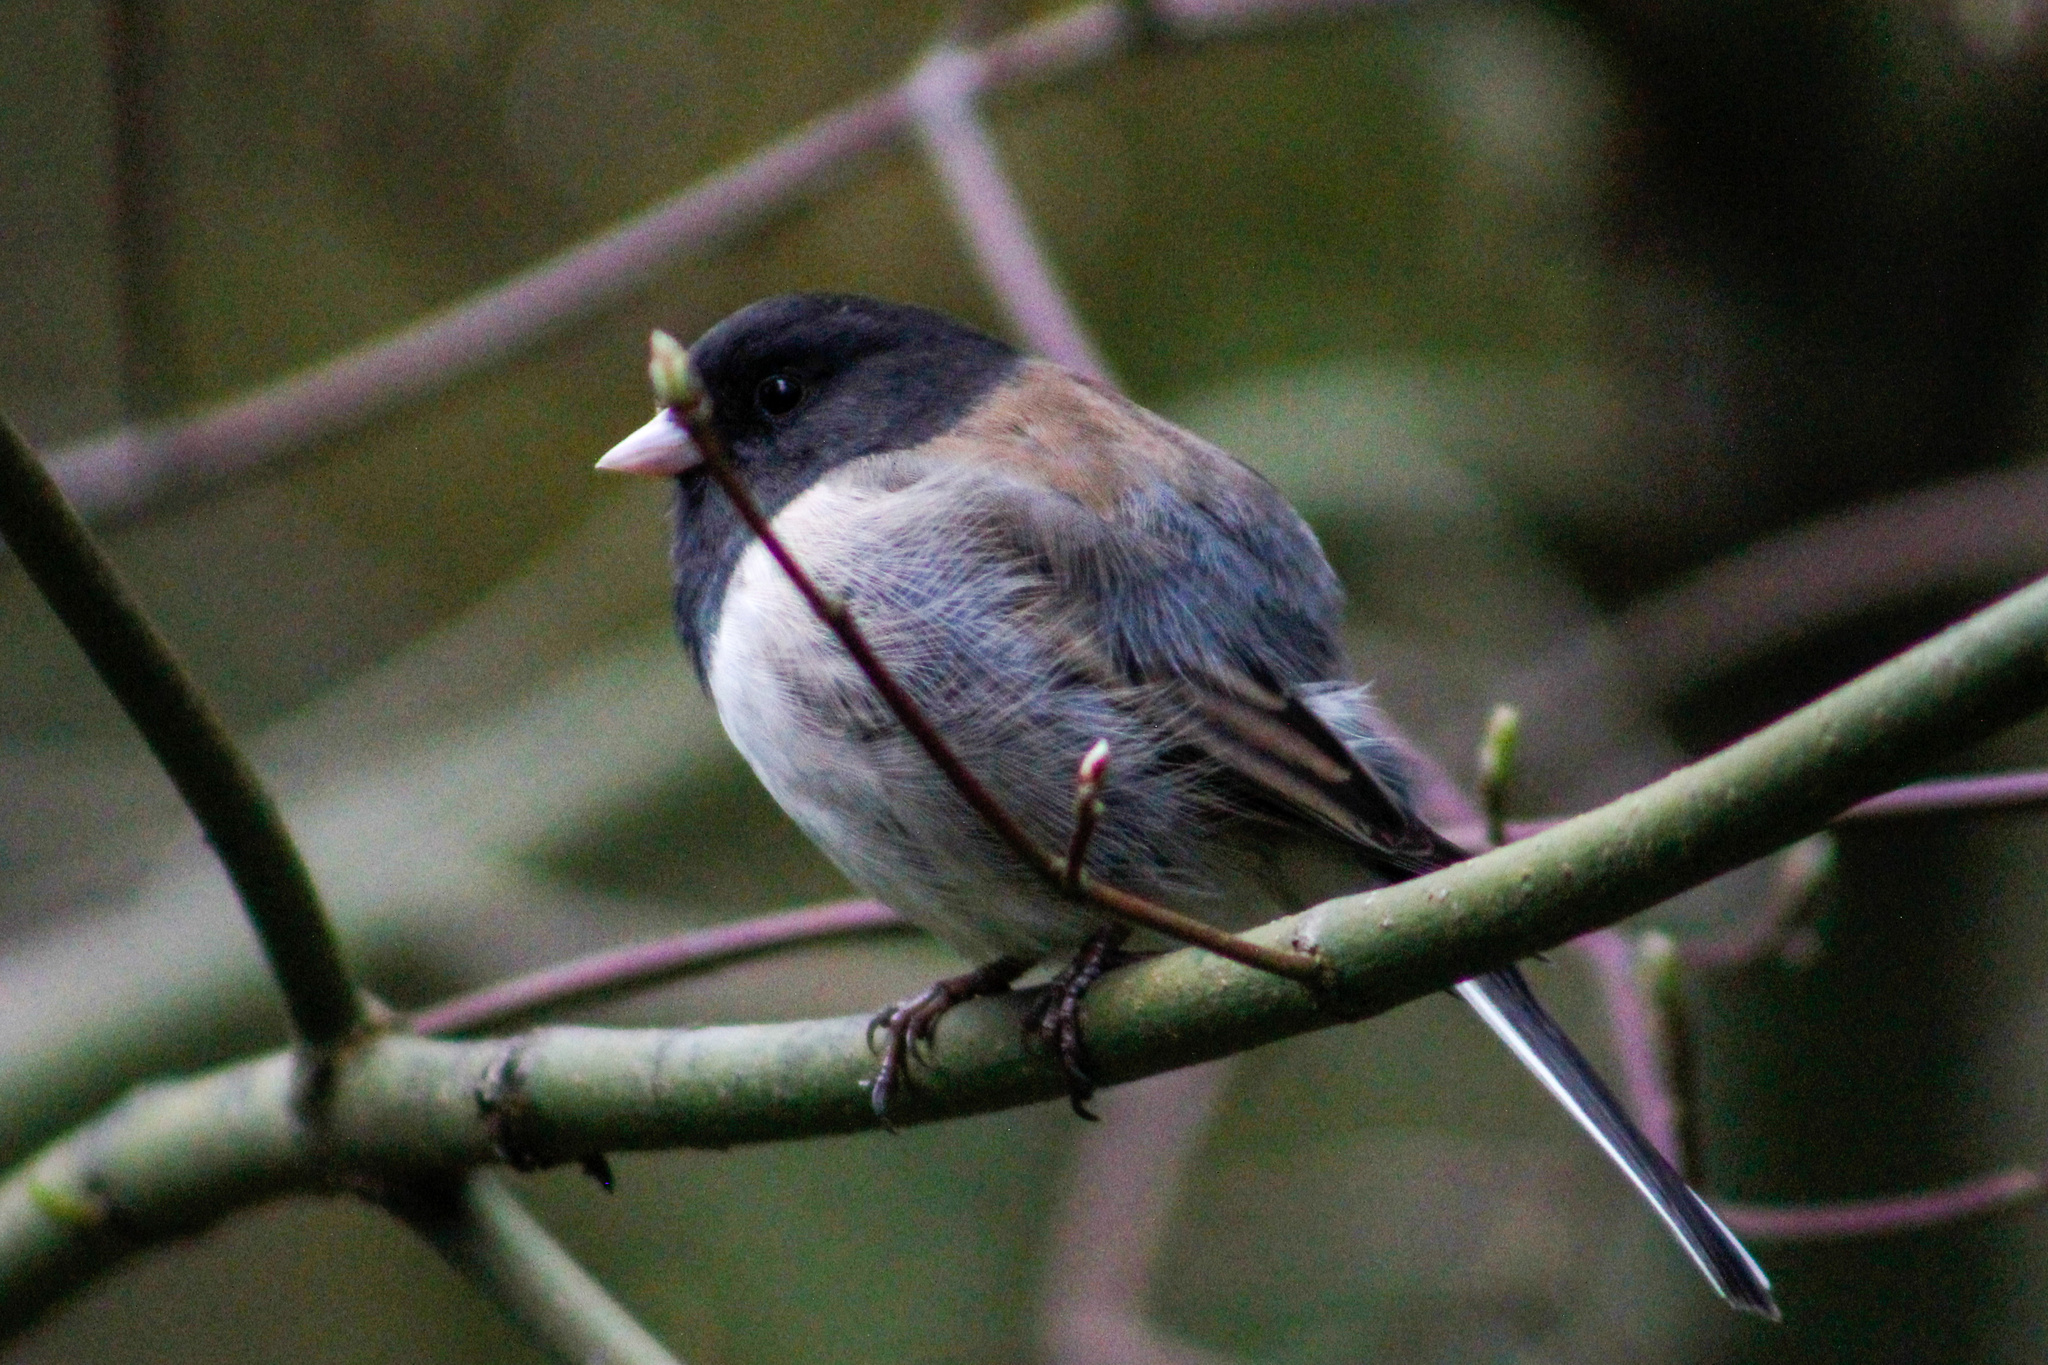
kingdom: Animalia
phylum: Chordata
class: Aves
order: Passeriformes
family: Passerellidae
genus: Junco
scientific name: Junco hyemalis
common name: Dark-eyed junco
